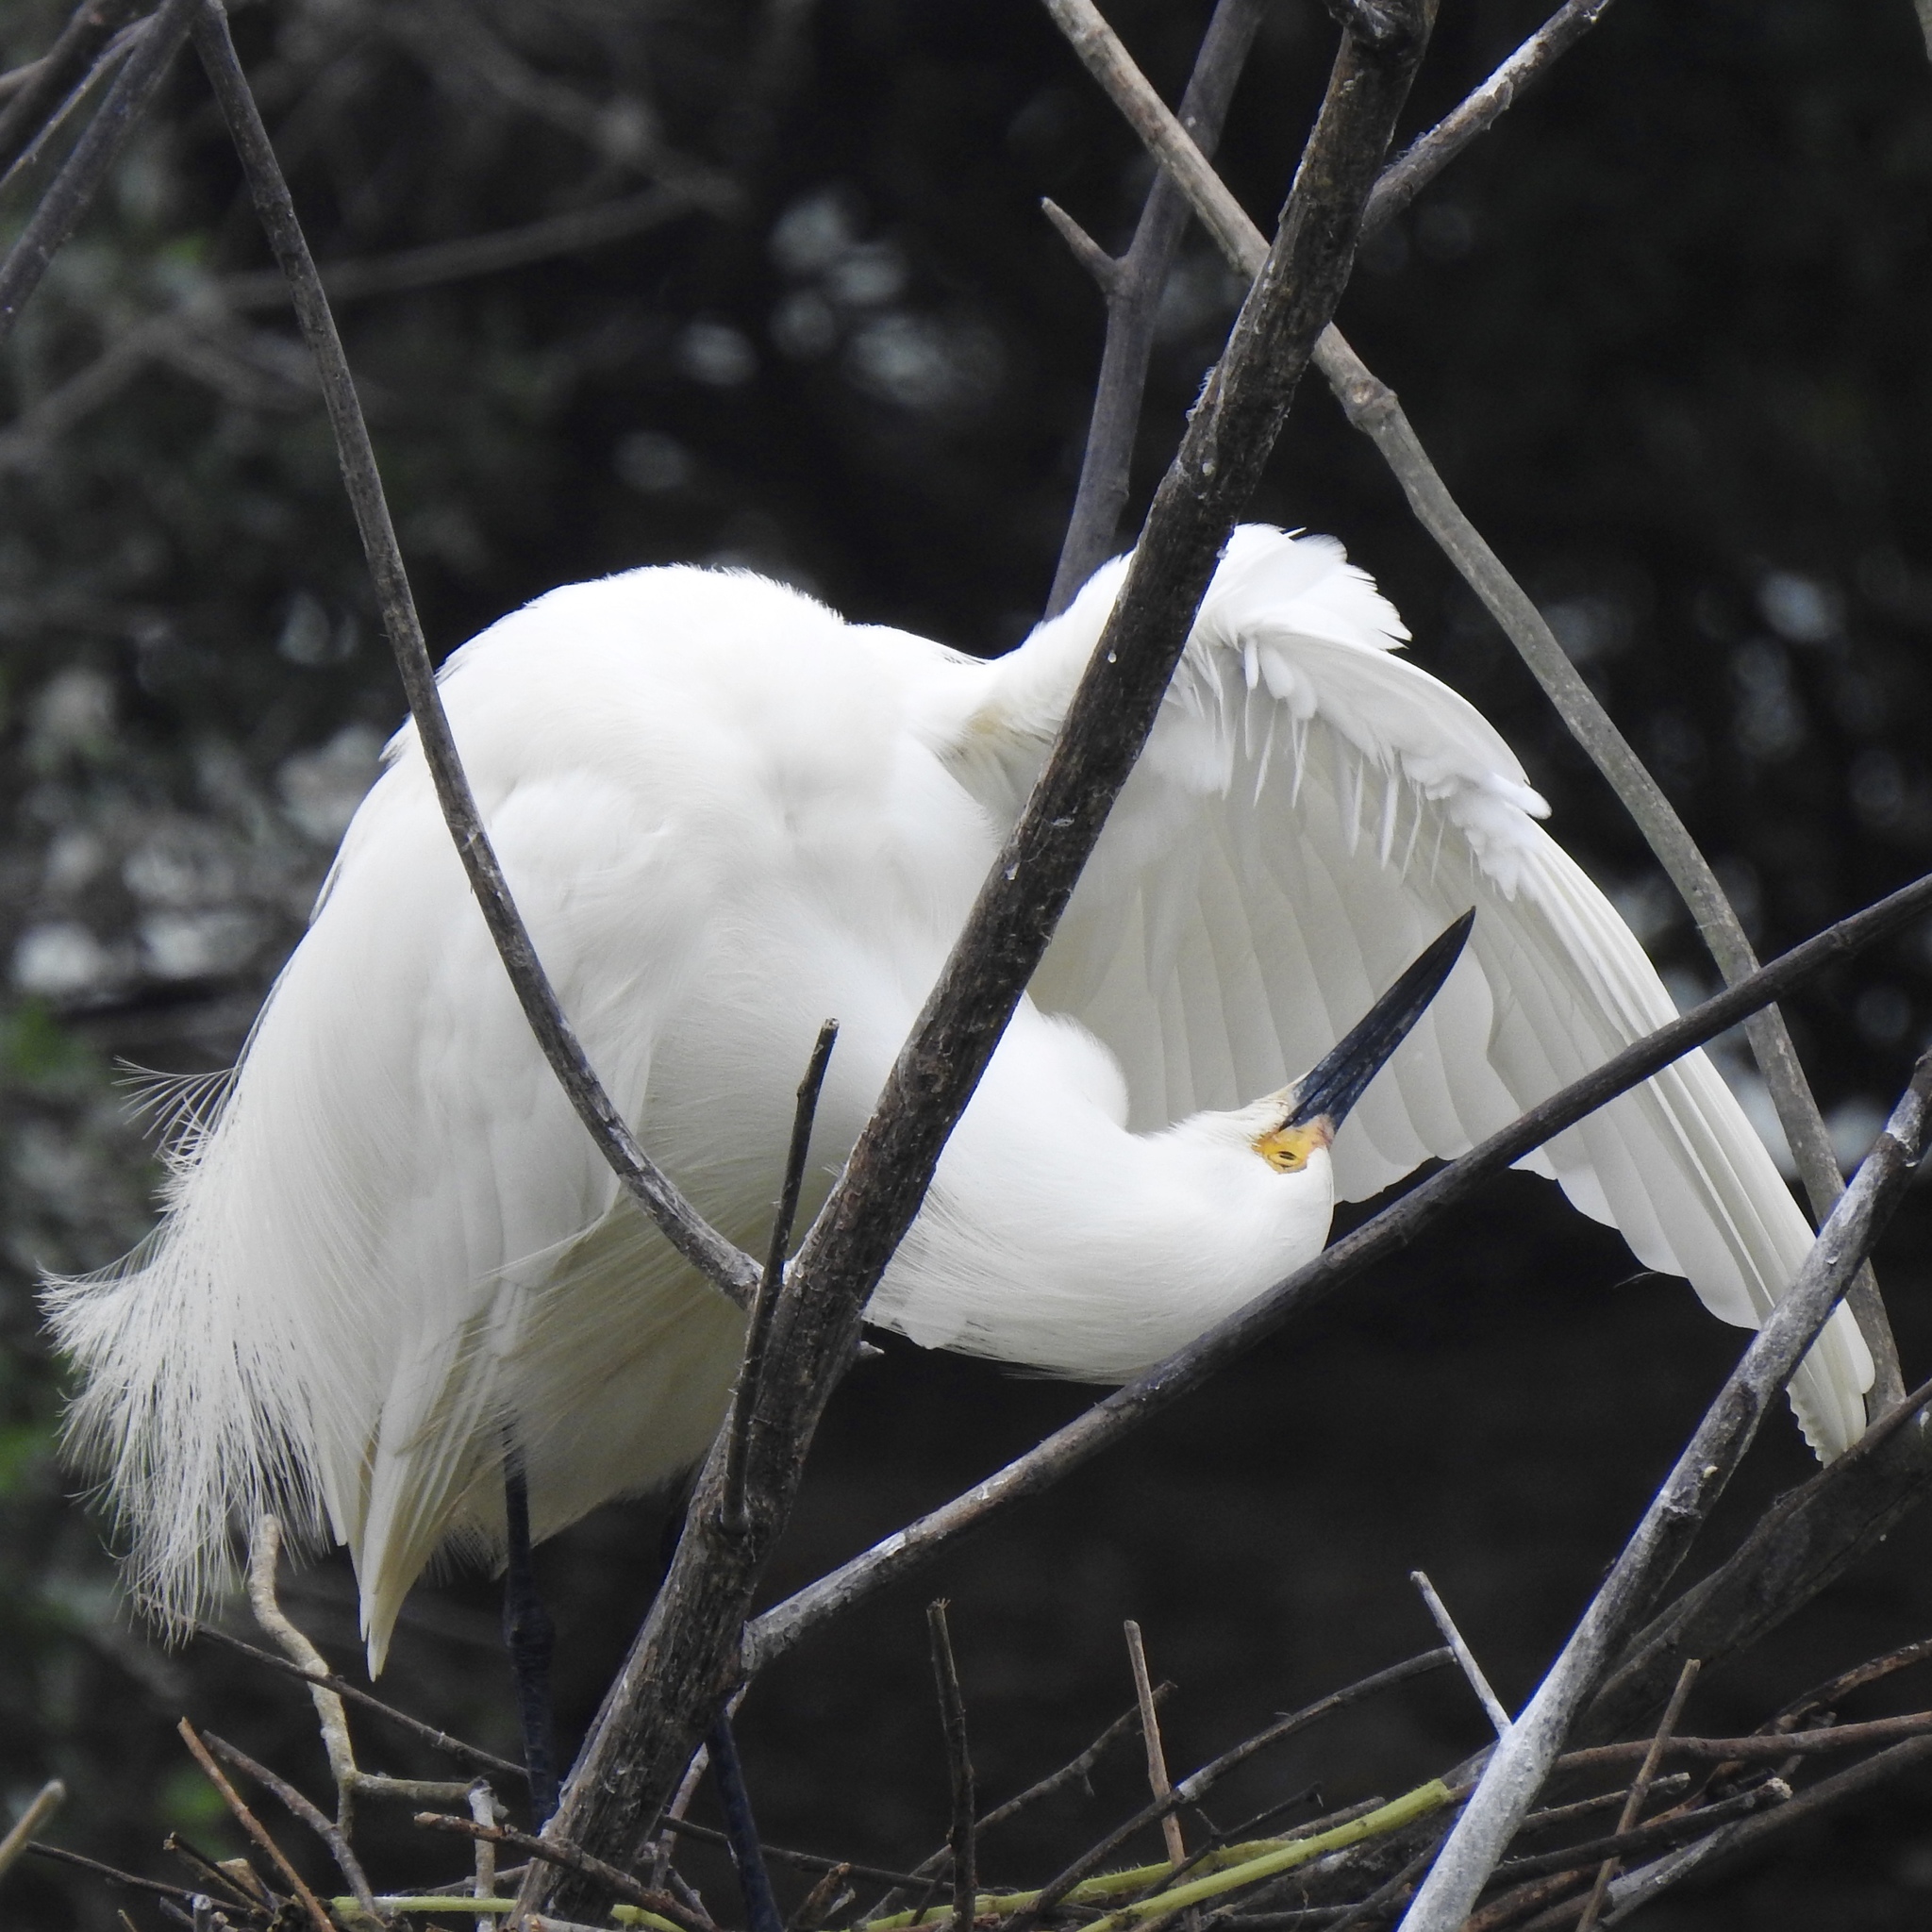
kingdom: Animalia
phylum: Chordata
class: Aves
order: Pelecaniformes
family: Ardeidae
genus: Egretta
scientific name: Egretta thula
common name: Snowy egret
